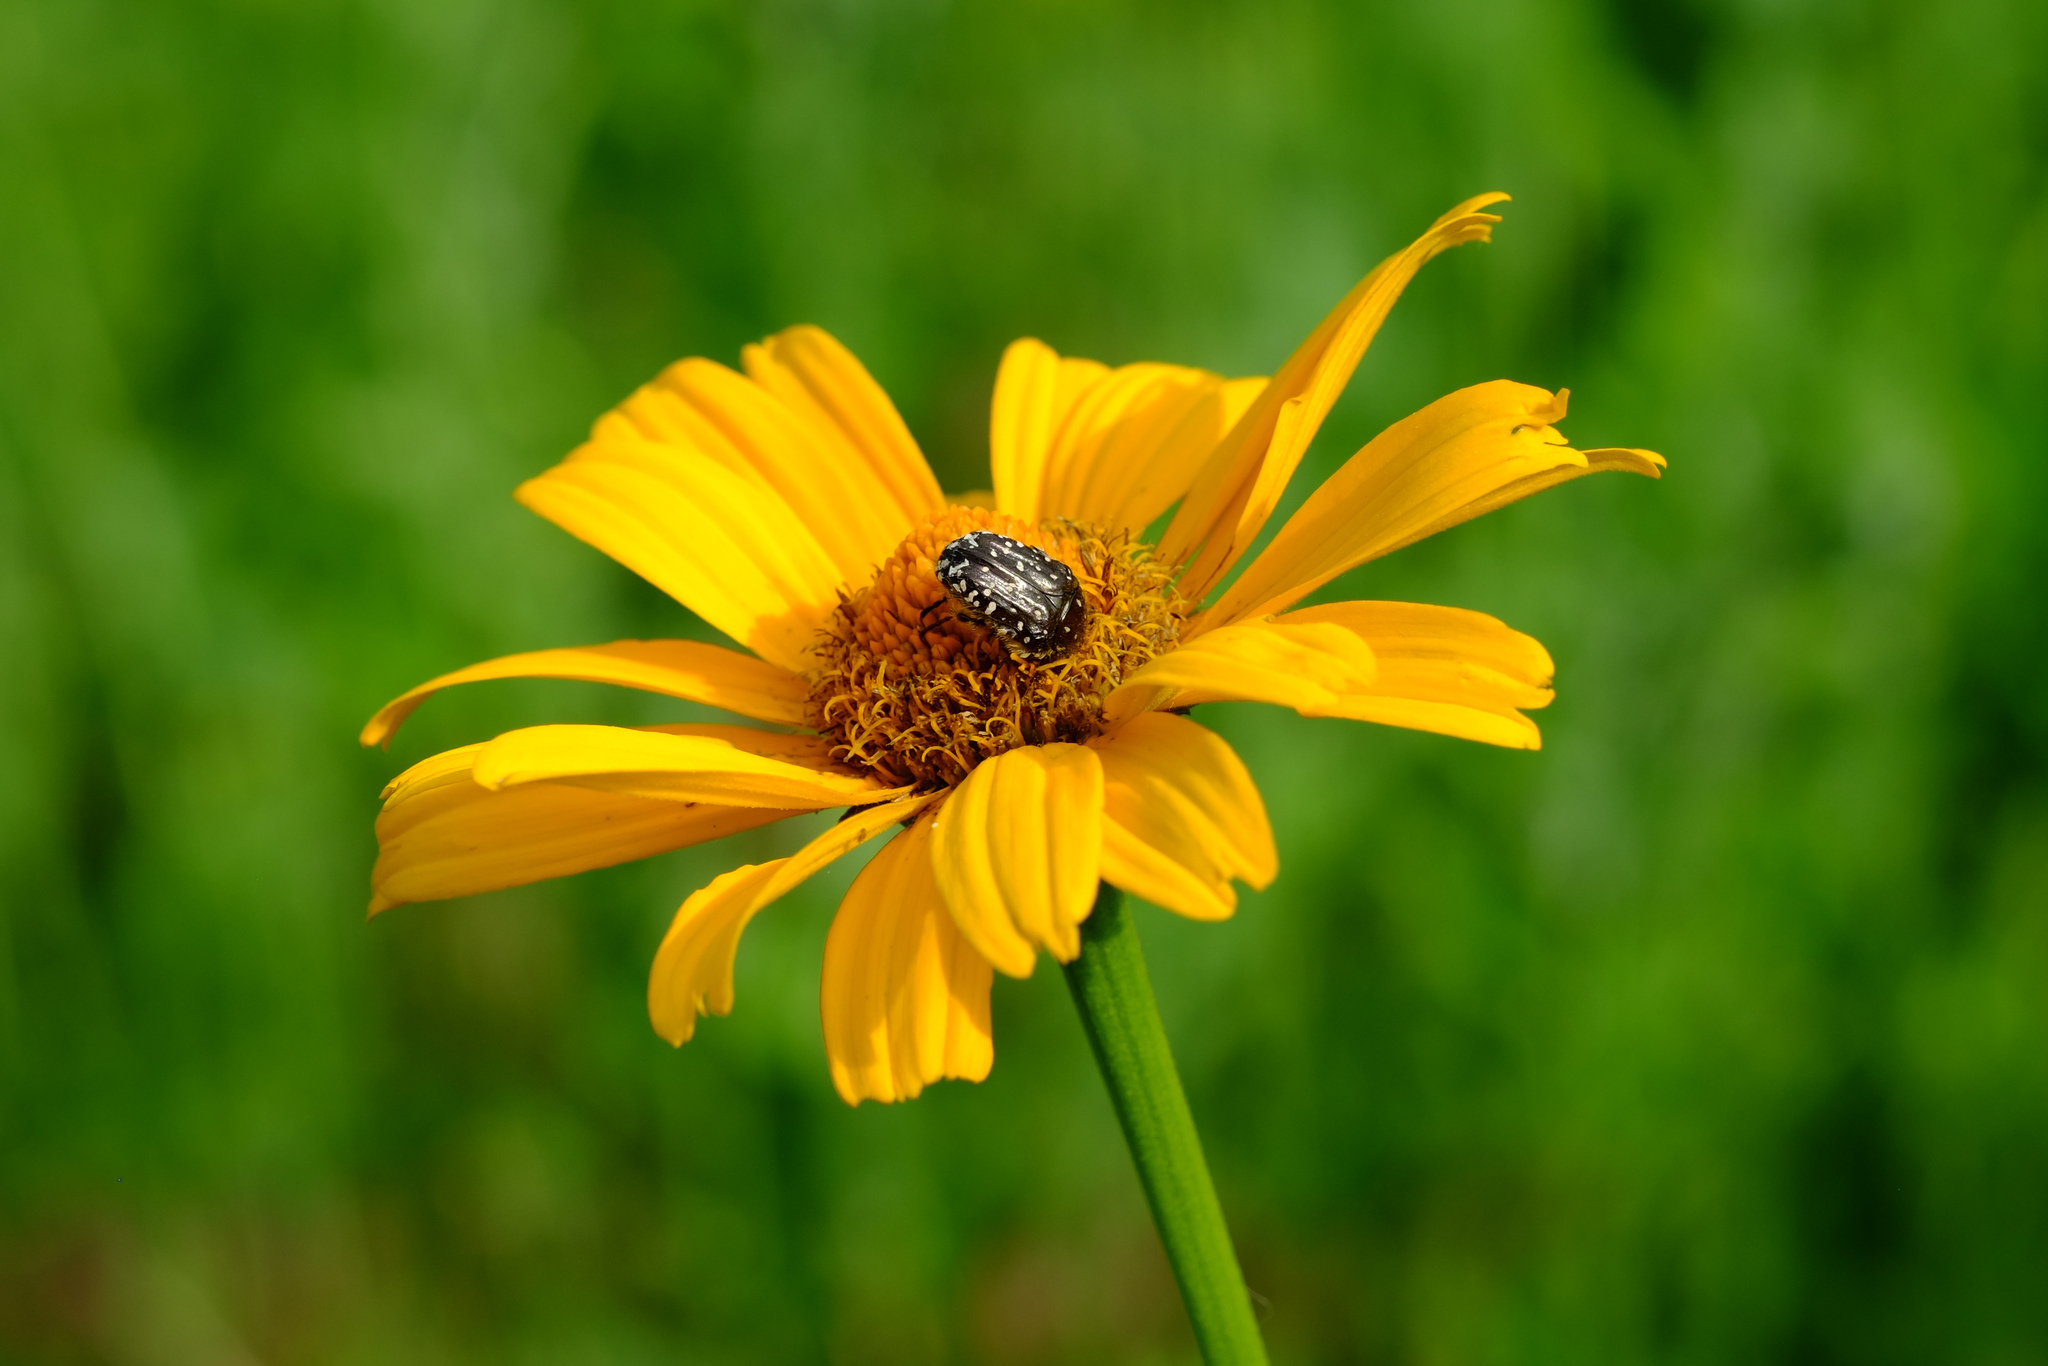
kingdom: Animalia
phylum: Arthropoda
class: Insecta
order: Coleoptera
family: Scarabaeidae
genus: Oxythyrea
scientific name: Oxythyrea funesta
